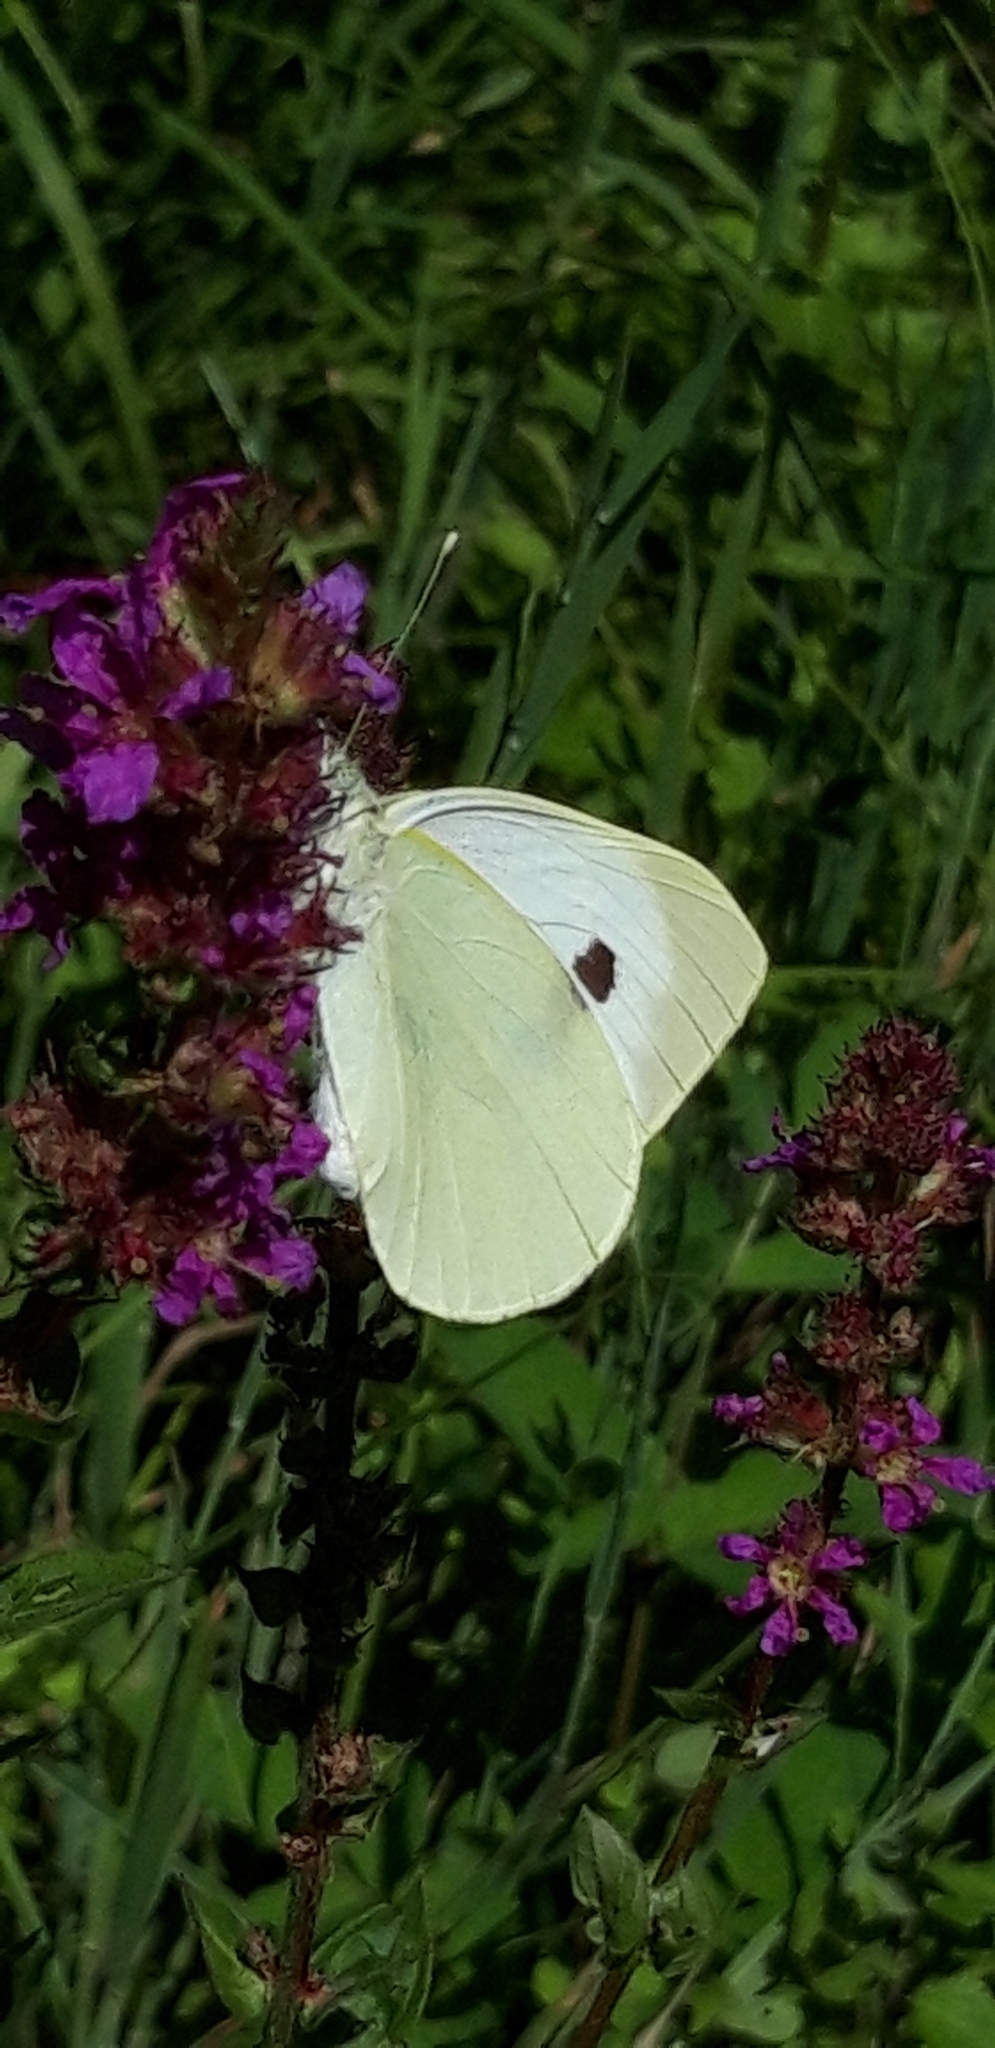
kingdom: Animalia
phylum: Arthropoda
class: Insecta
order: Lepidoptera
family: Pieridae
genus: Pieris
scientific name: Pieris brassicae
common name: Large white
